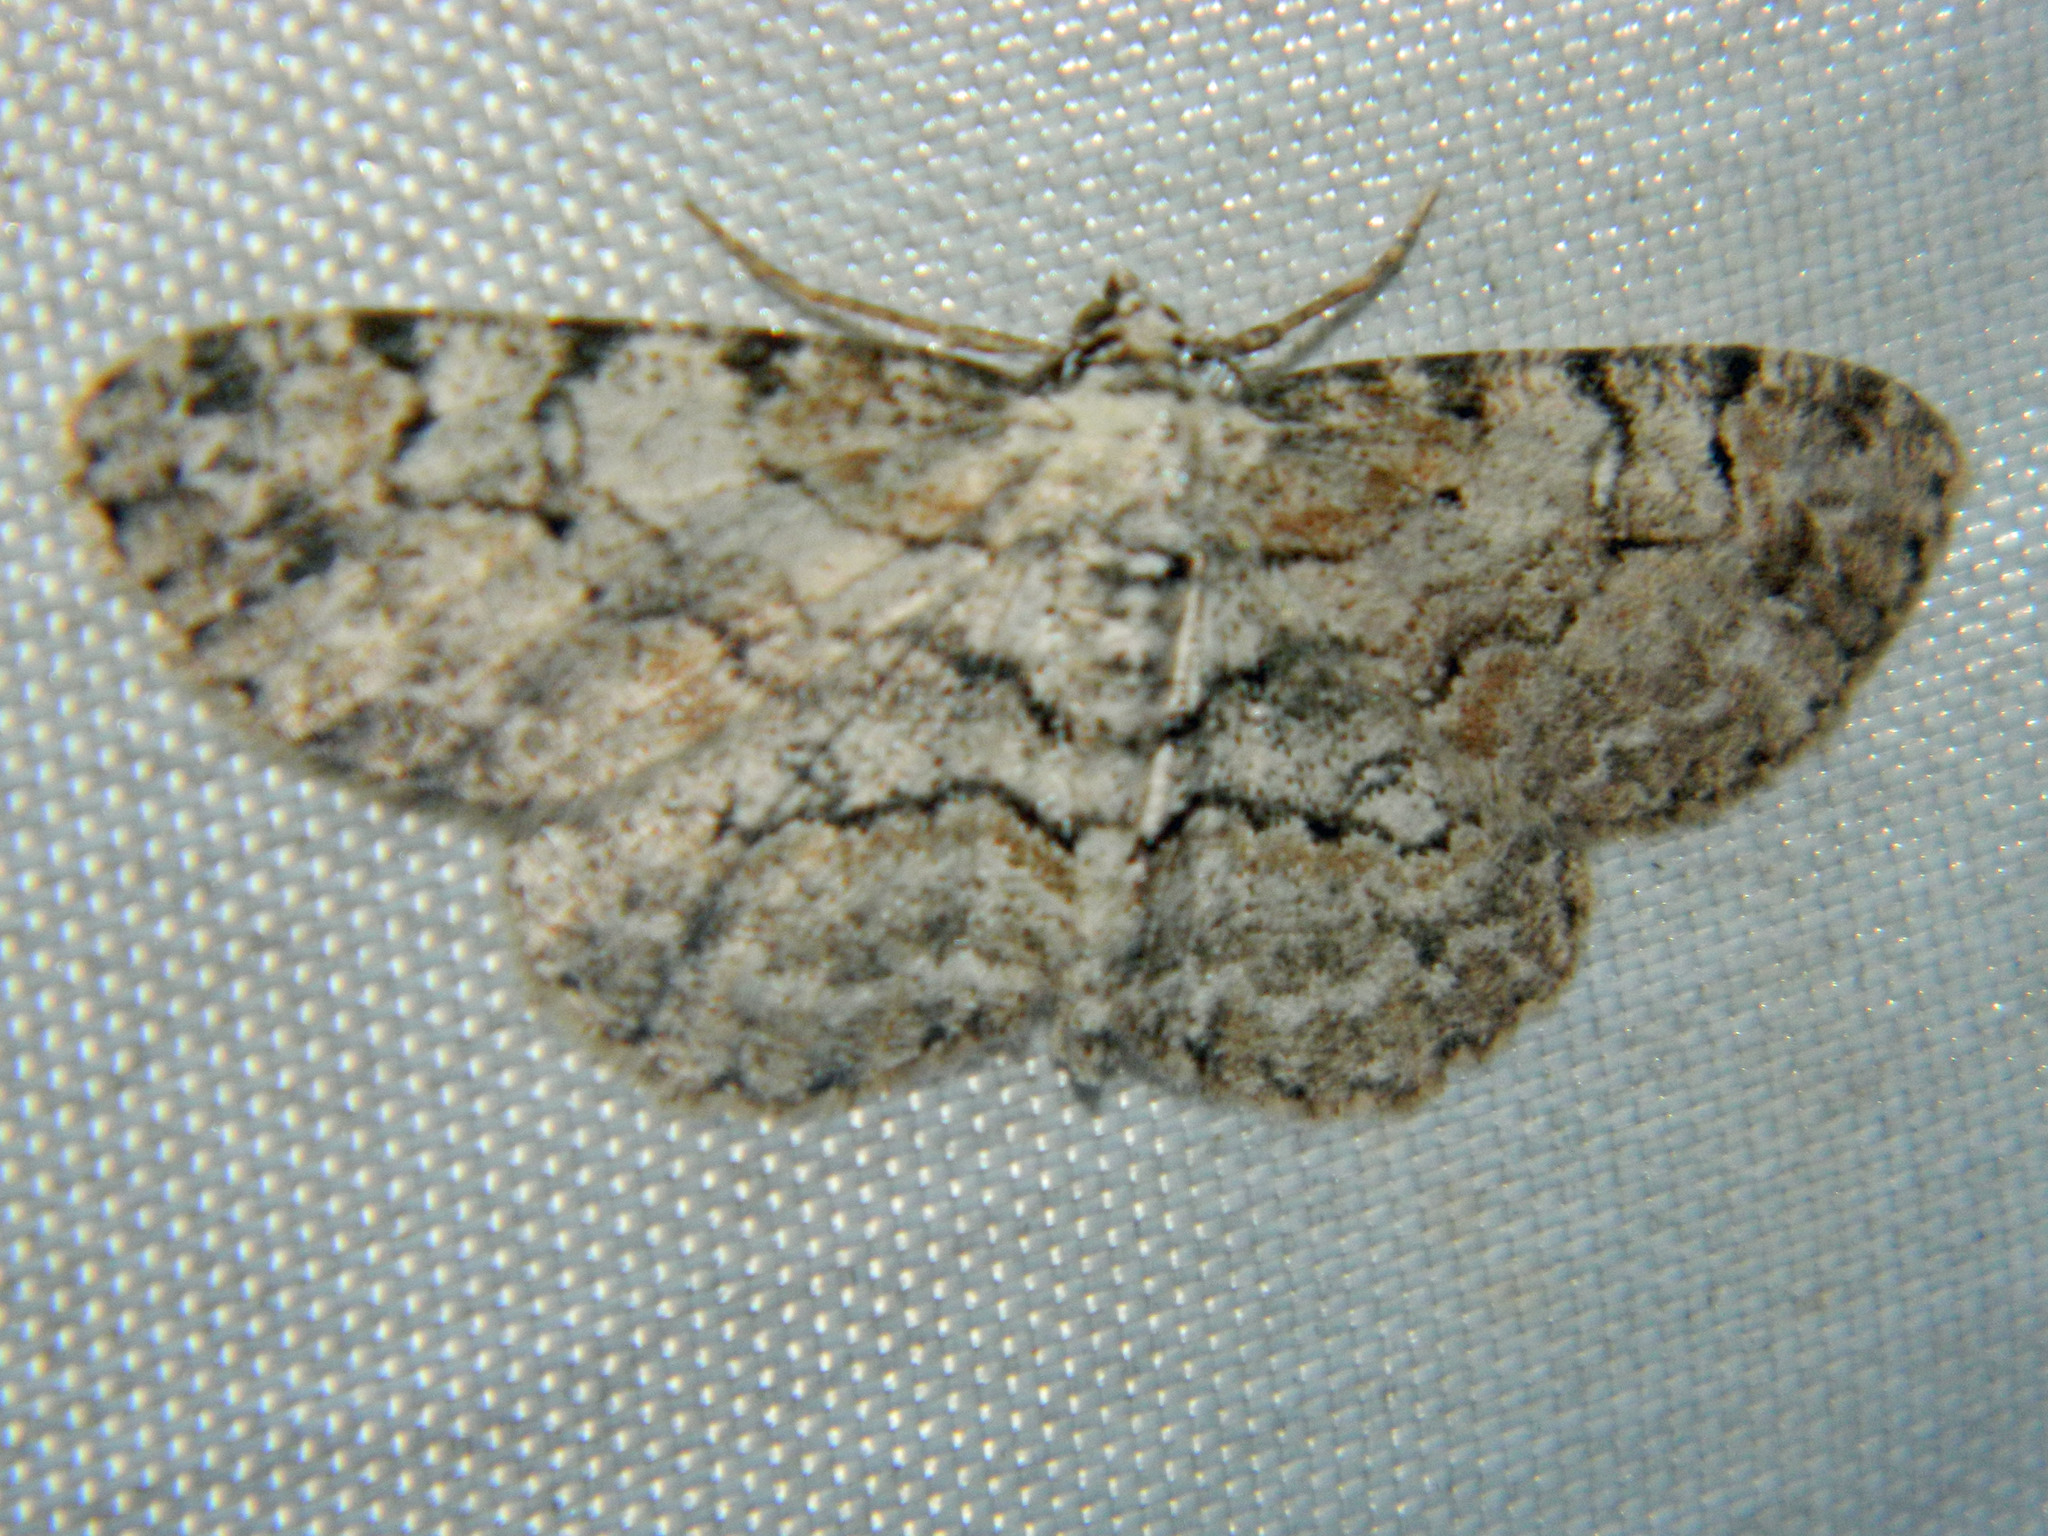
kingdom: Animalia
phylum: Arthropoda
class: Insecta
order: Lepidoptera
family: Geometridae
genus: Iridopsis
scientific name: Iridopsis ephyraria
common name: Pale-winged gray
